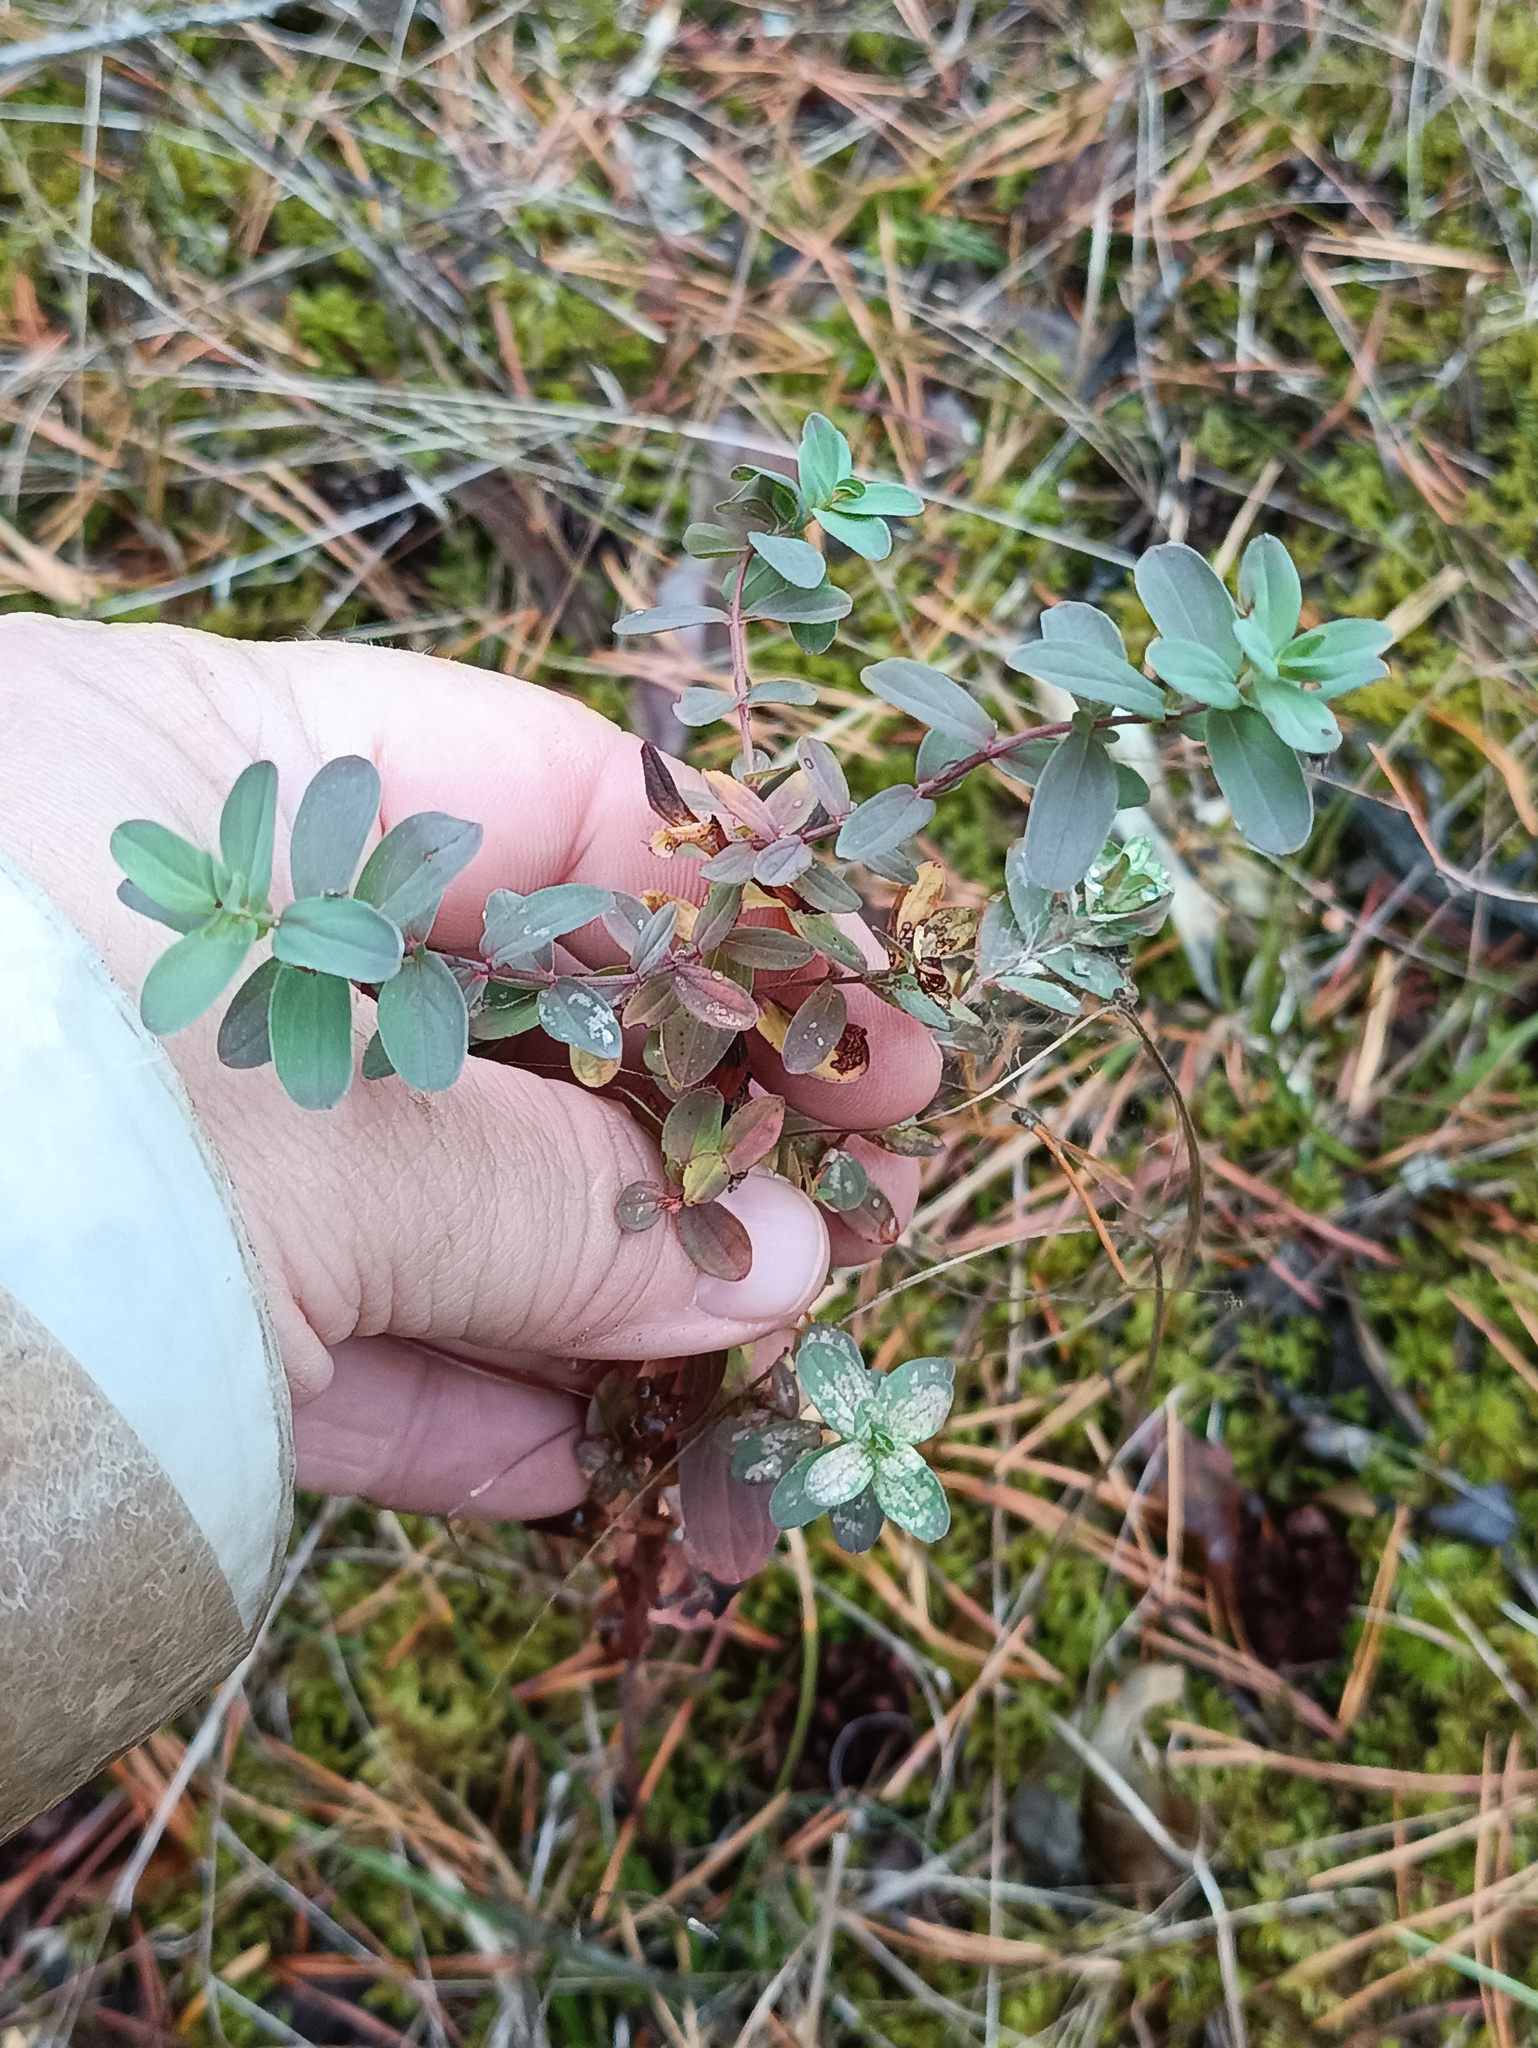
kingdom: Plantae
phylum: Tracheophyta
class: Magnoliopsida
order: Malpighiales
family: Hypericaceae
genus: Hypericum
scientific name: Hypericum perforatum
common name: Common st. johnswort
